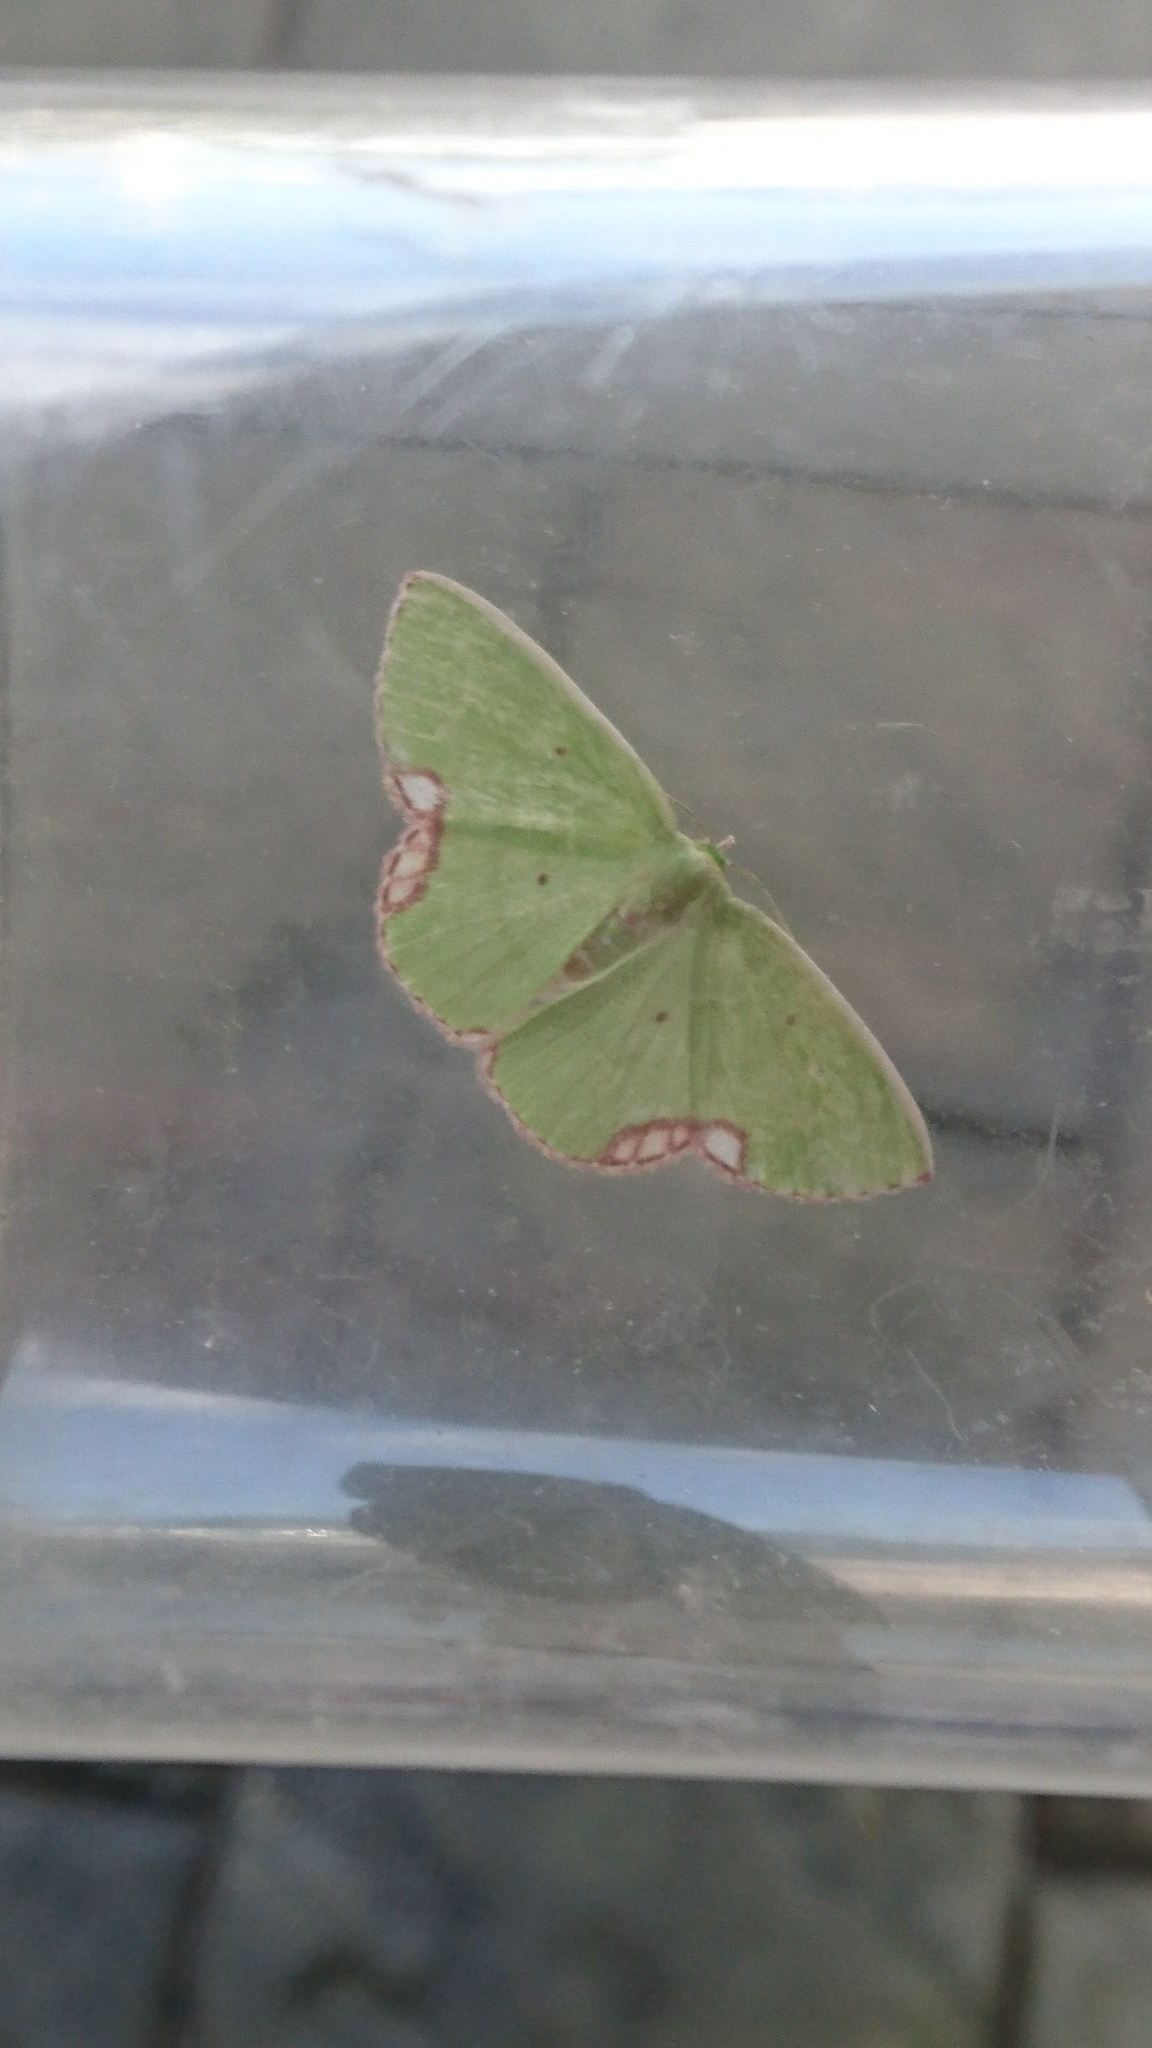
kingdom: Animalia
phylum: Arthropoda
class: Insecta
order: Lepidoptera
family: Geometridae
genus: Comibaena
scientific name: Comibaena procumbaria
